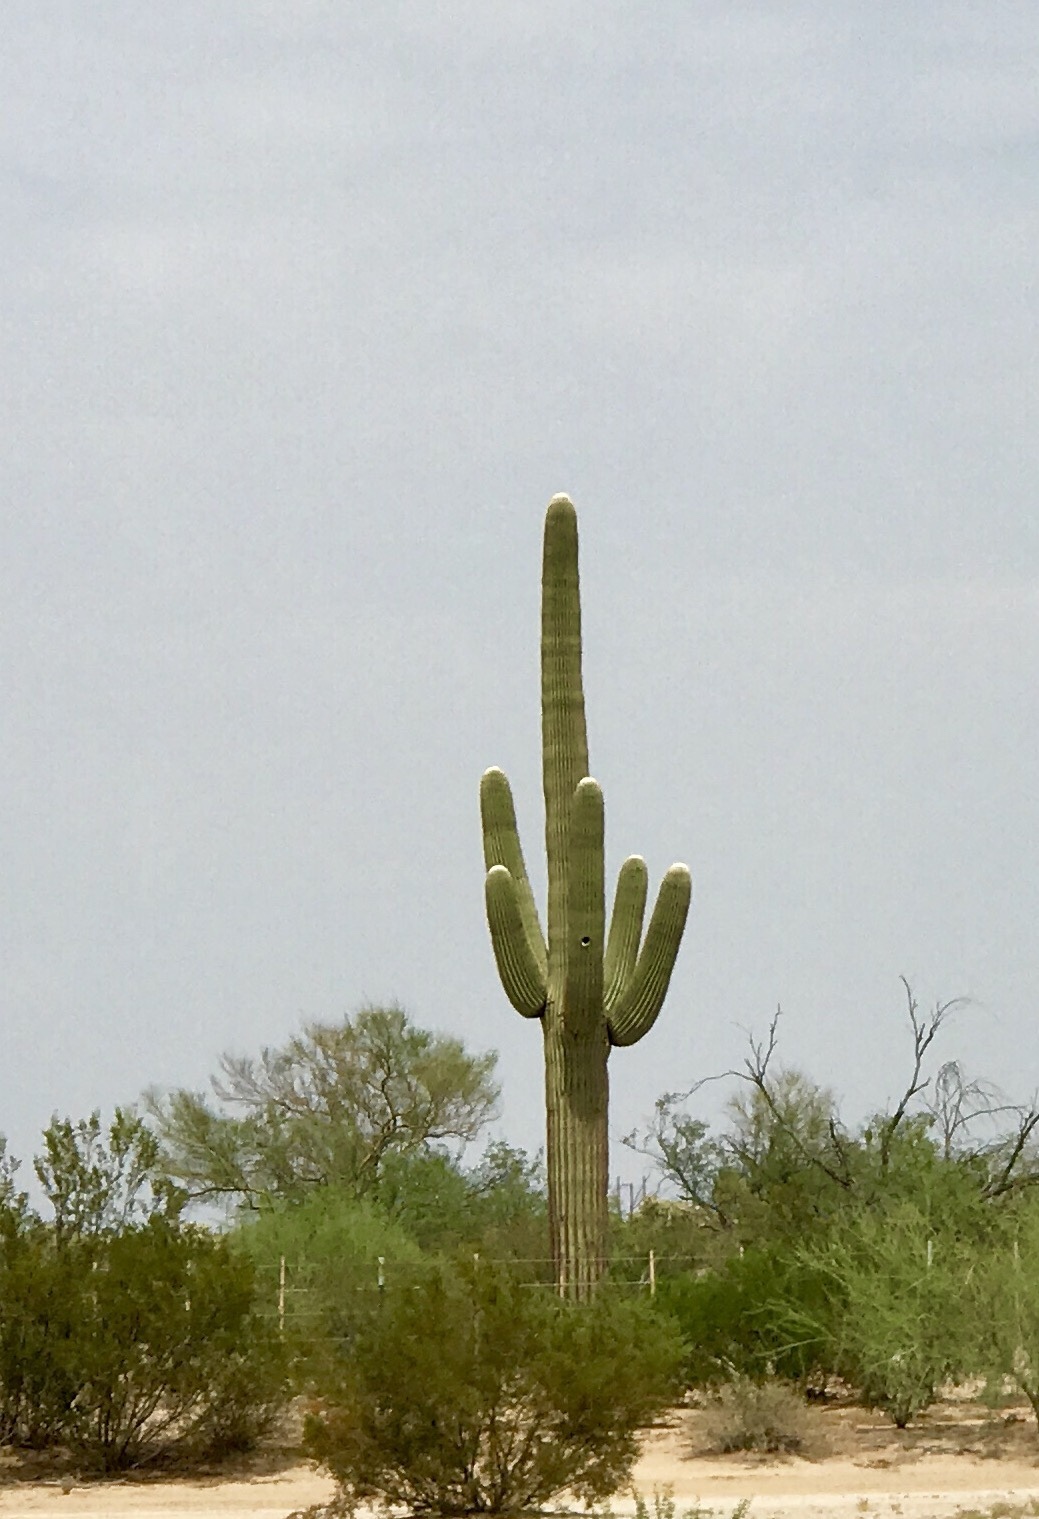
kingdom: Plantae
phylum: Tracheophyta
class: Magnoliopsida
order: Caryophyllales
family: Cactaceae
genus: Carnegiea
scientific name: Carnegiea gigantea
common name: Saguaro
